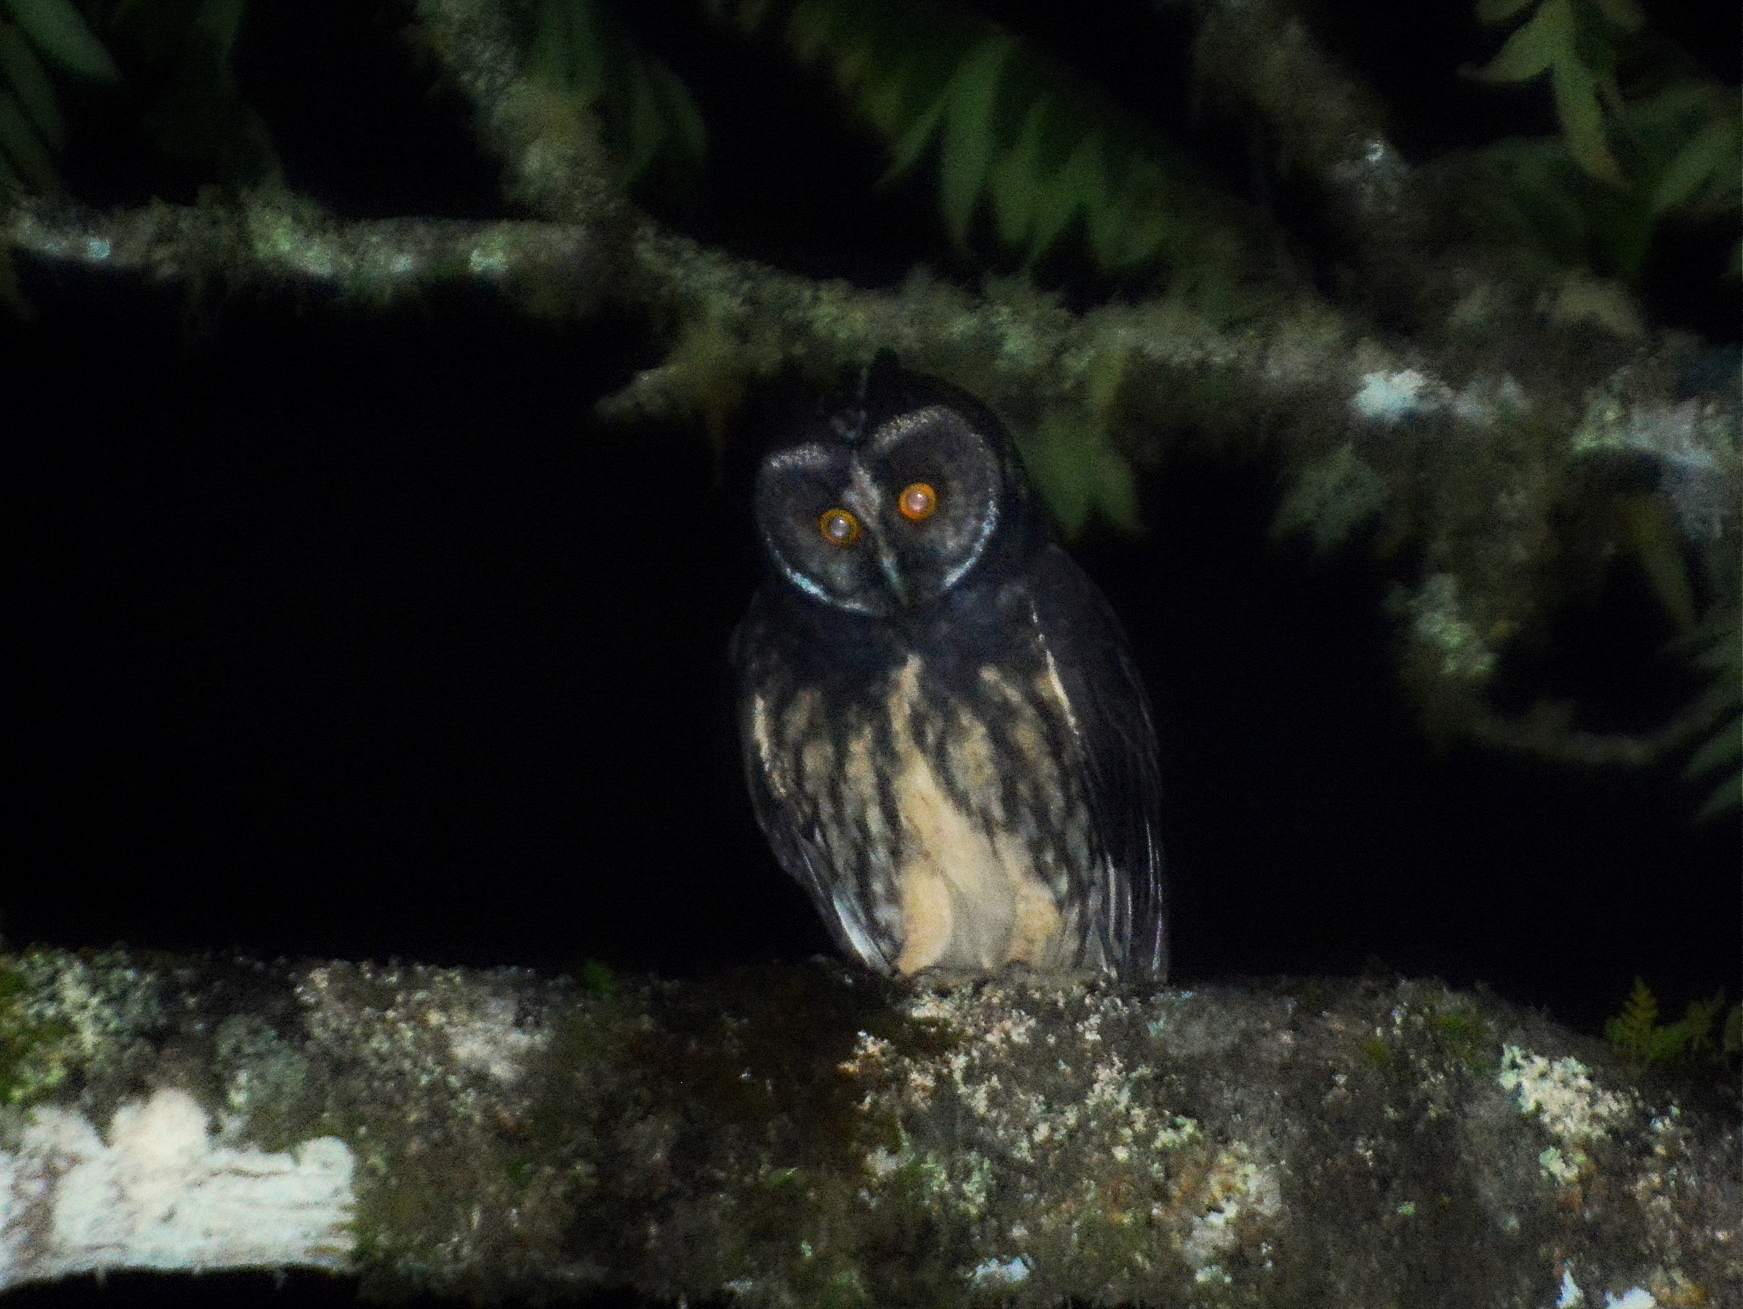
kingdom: Animalia
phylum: Chordata
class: Aves
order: Strigiformes
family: Strigidae
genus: Asio
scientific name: Asio stygius
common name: Stygian owl
